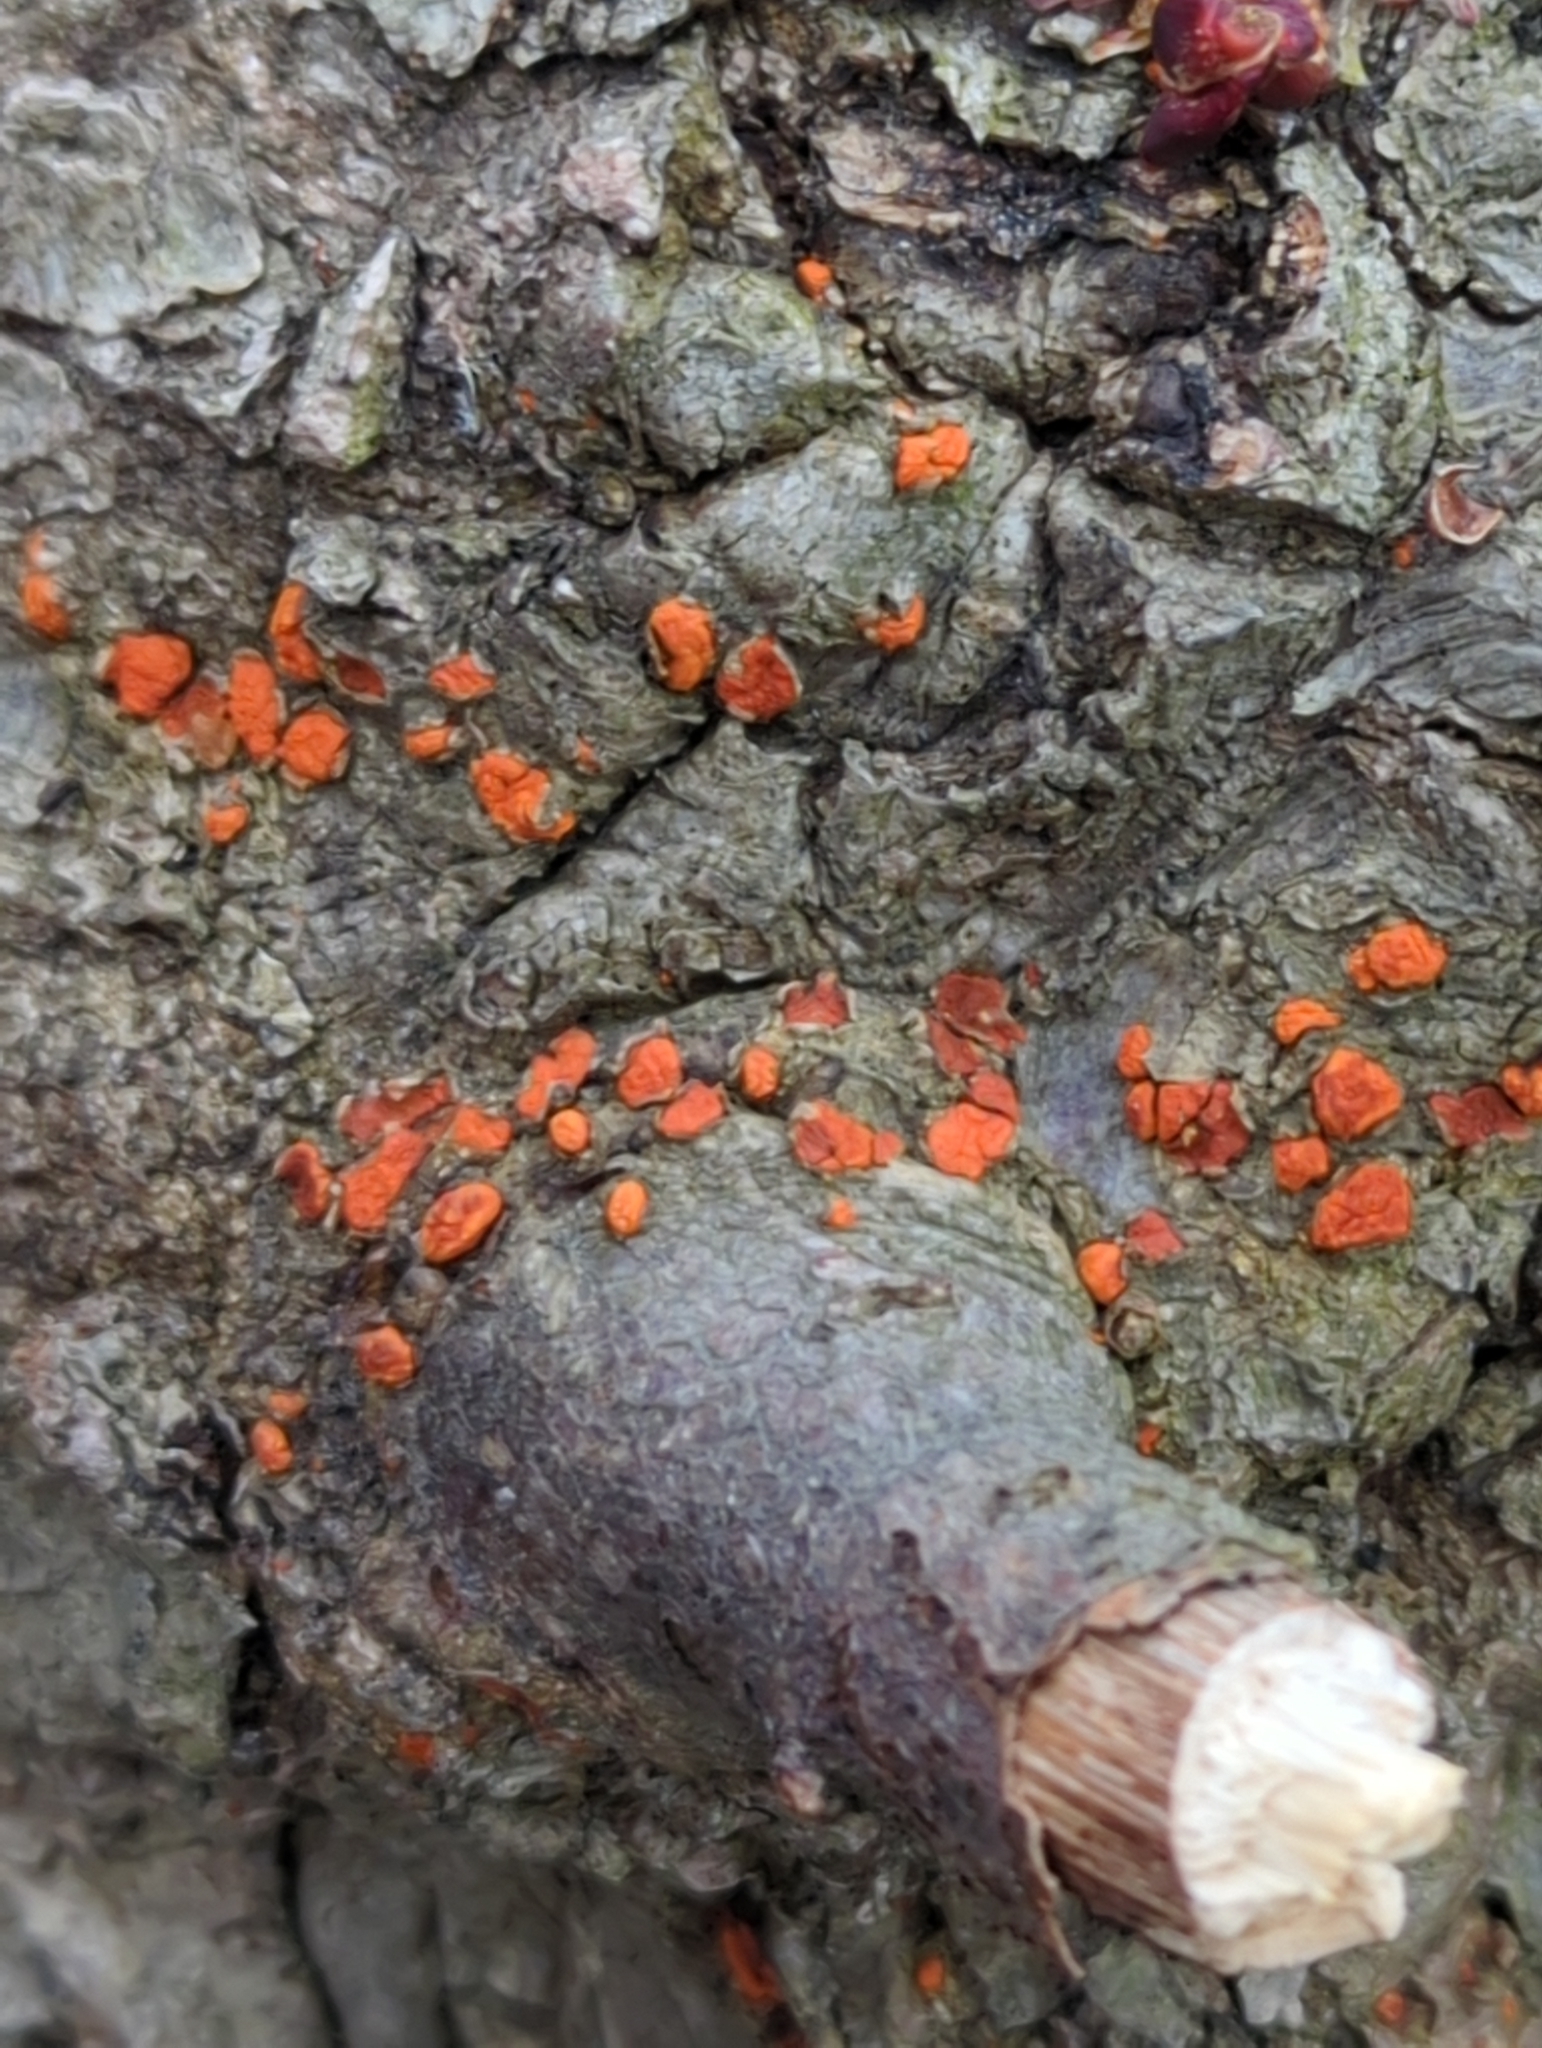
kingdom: Fungi
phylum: Ascomycota
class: Sordariomycetes
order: Diaporthales
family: Cryphonectriaceae
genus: Amphilogia
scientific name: Amphilogia gyrosa
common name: Orange hobnail canker
